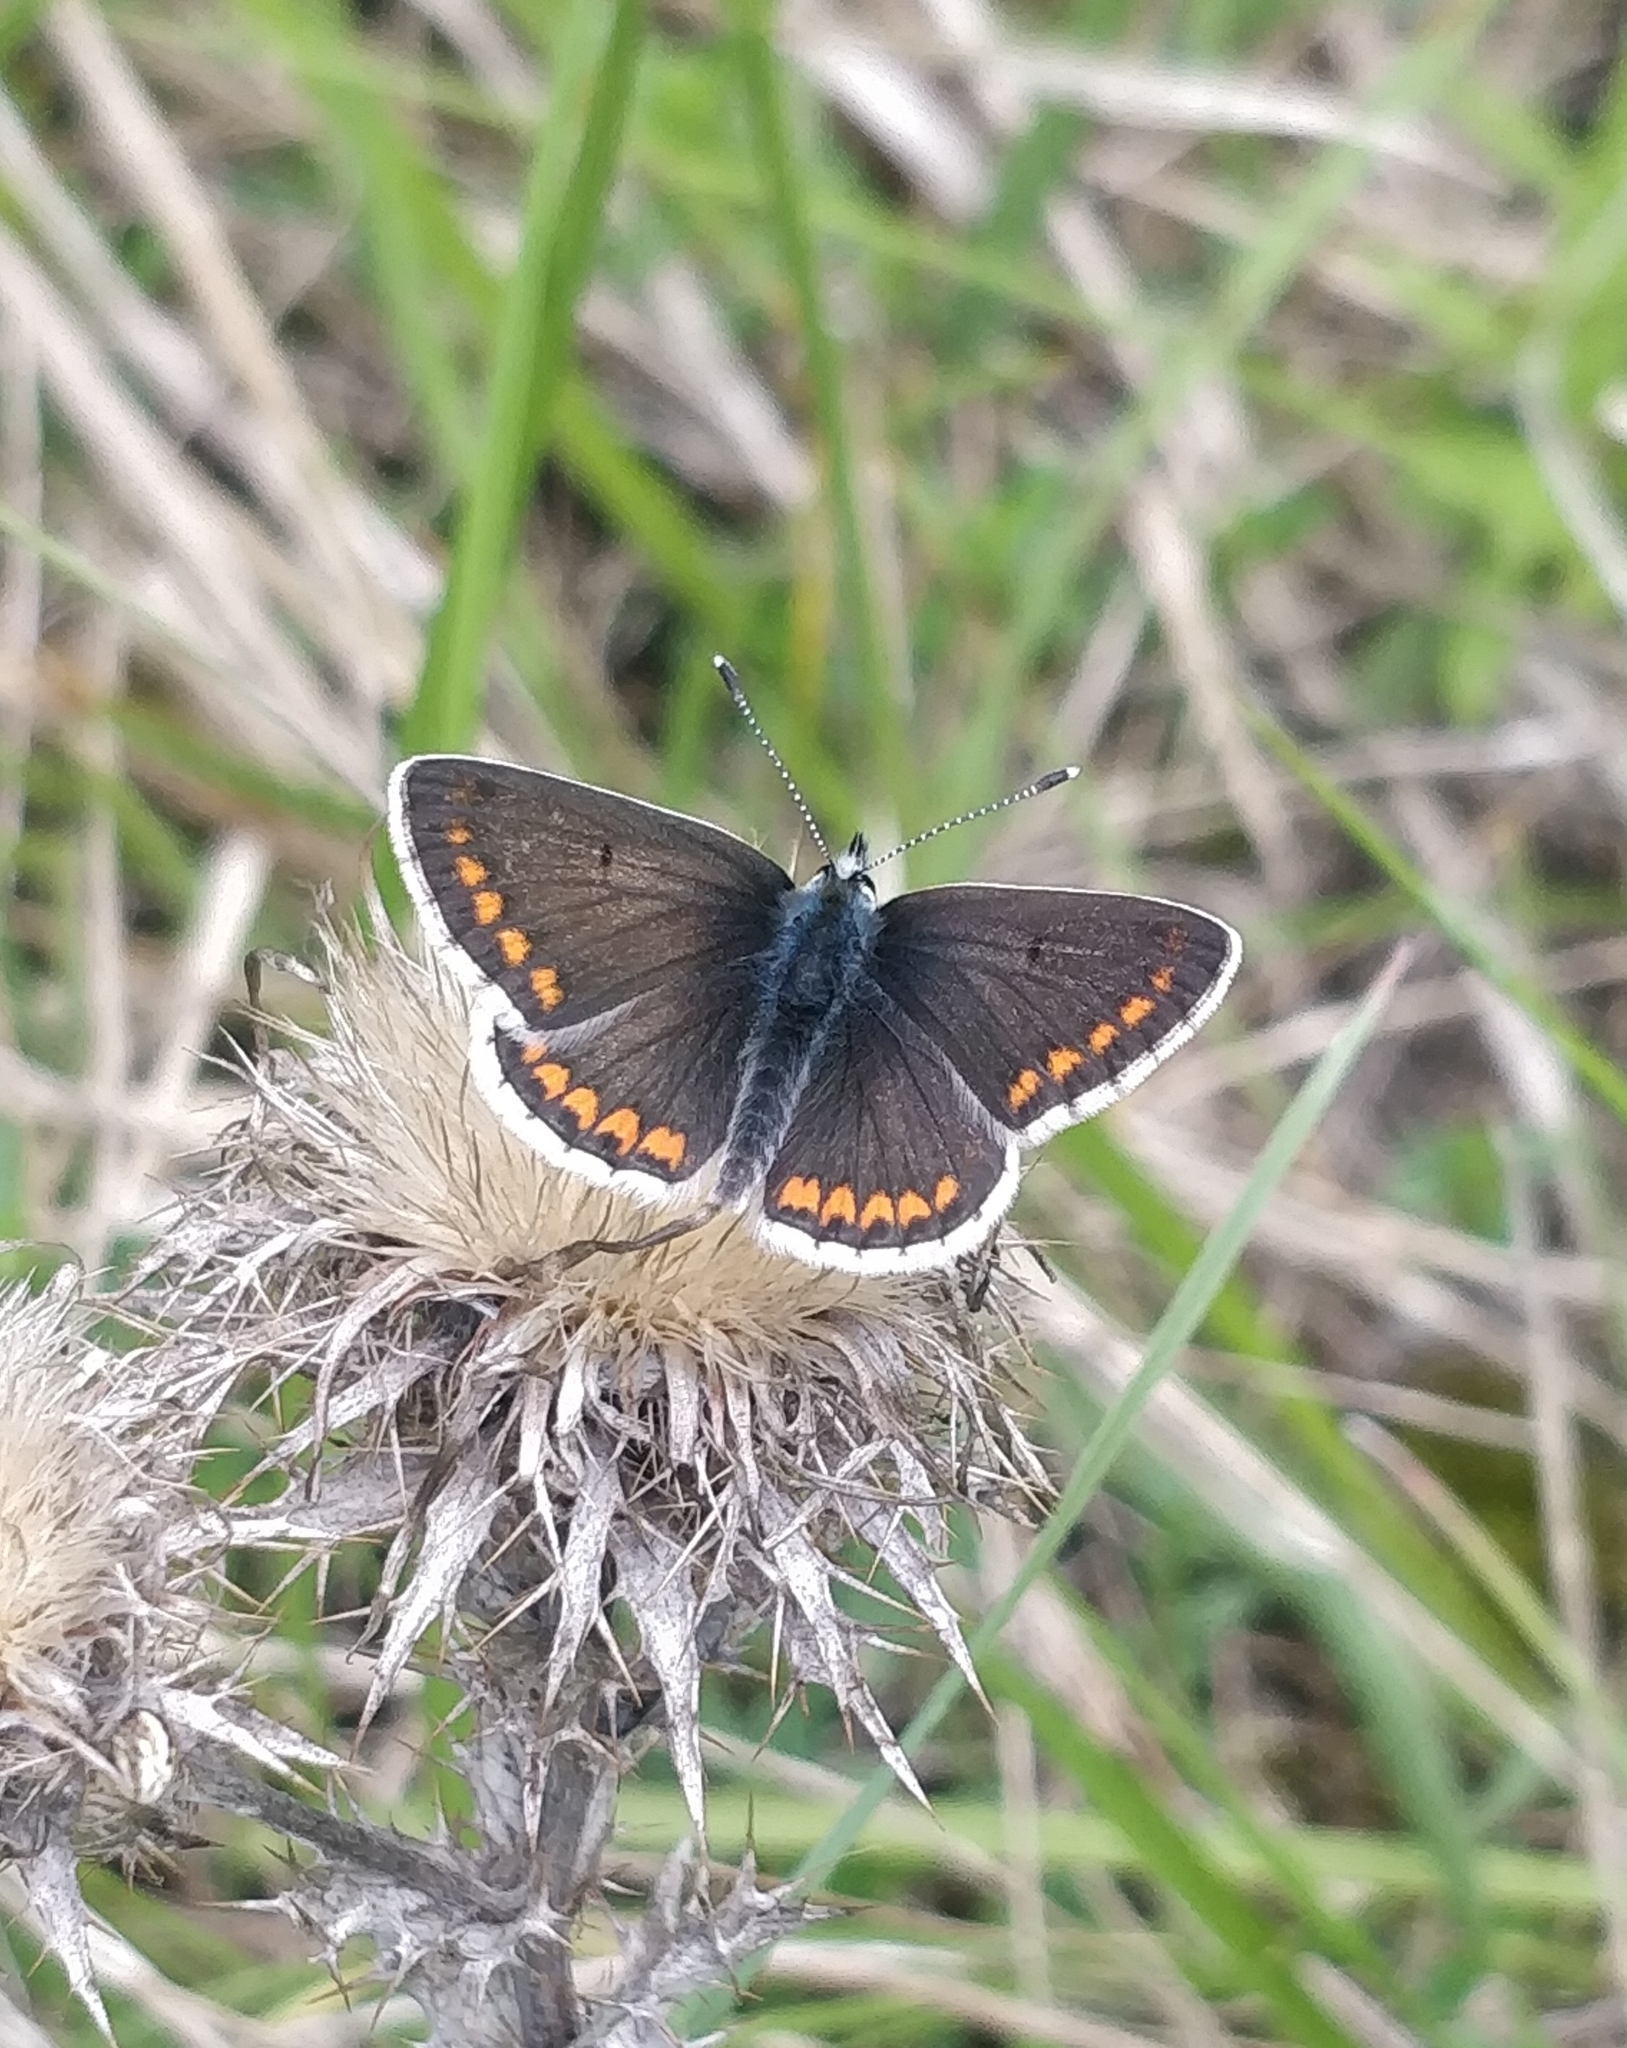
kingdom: Animalia
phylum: Arthropoda
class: Insecta
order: Lepidoptera
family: Lycaenidae
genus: Aricia
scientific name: Aricia agestis
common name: Brown argus
